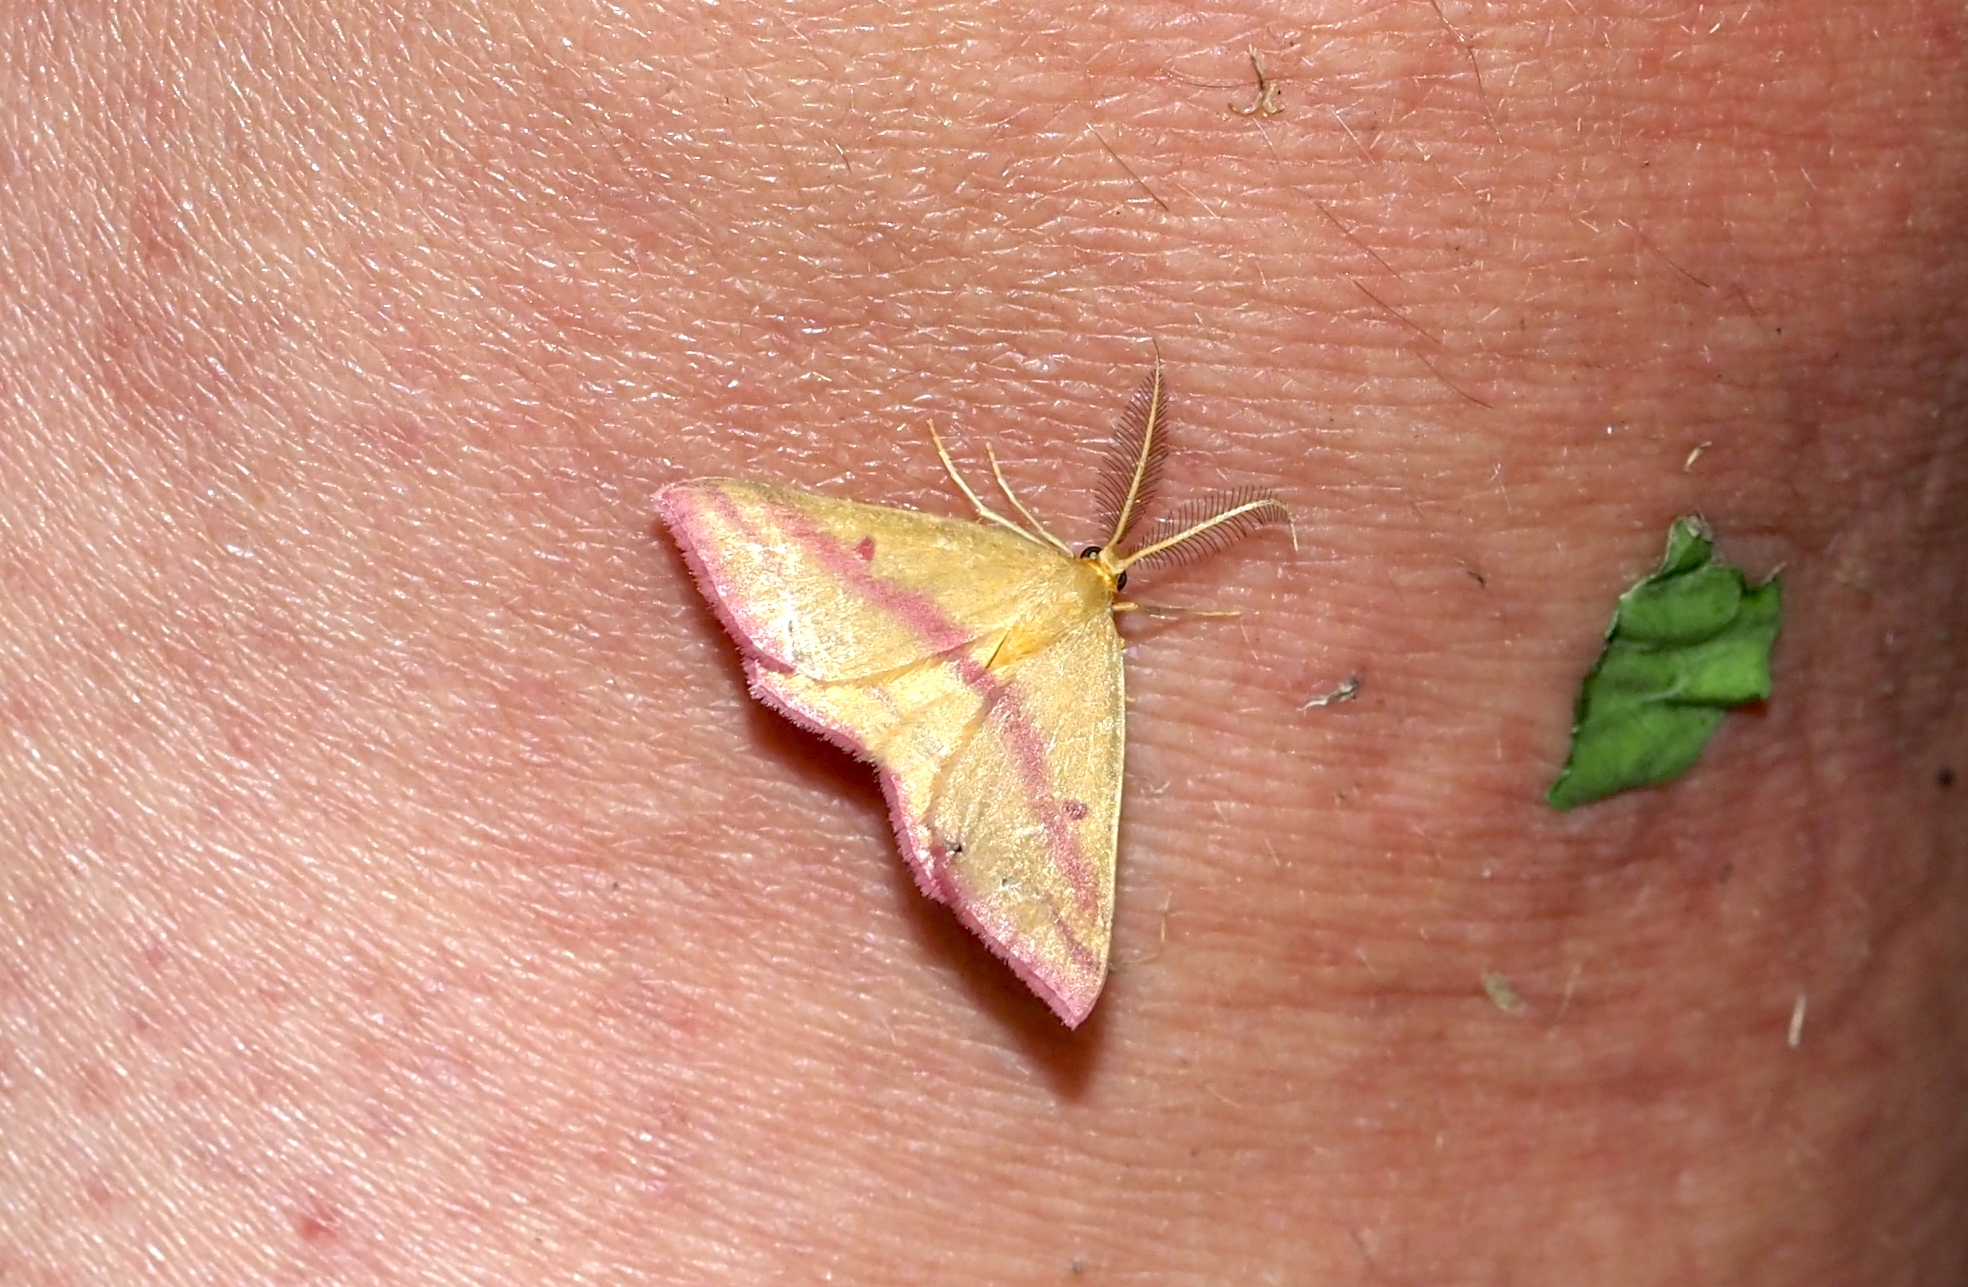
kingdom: Animalia
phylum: Arthropoda
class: Insecta
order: Lepidoptera
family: Geometridae
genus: Haematopis
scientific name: Haematopis grataria
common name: Chickweed geometer
